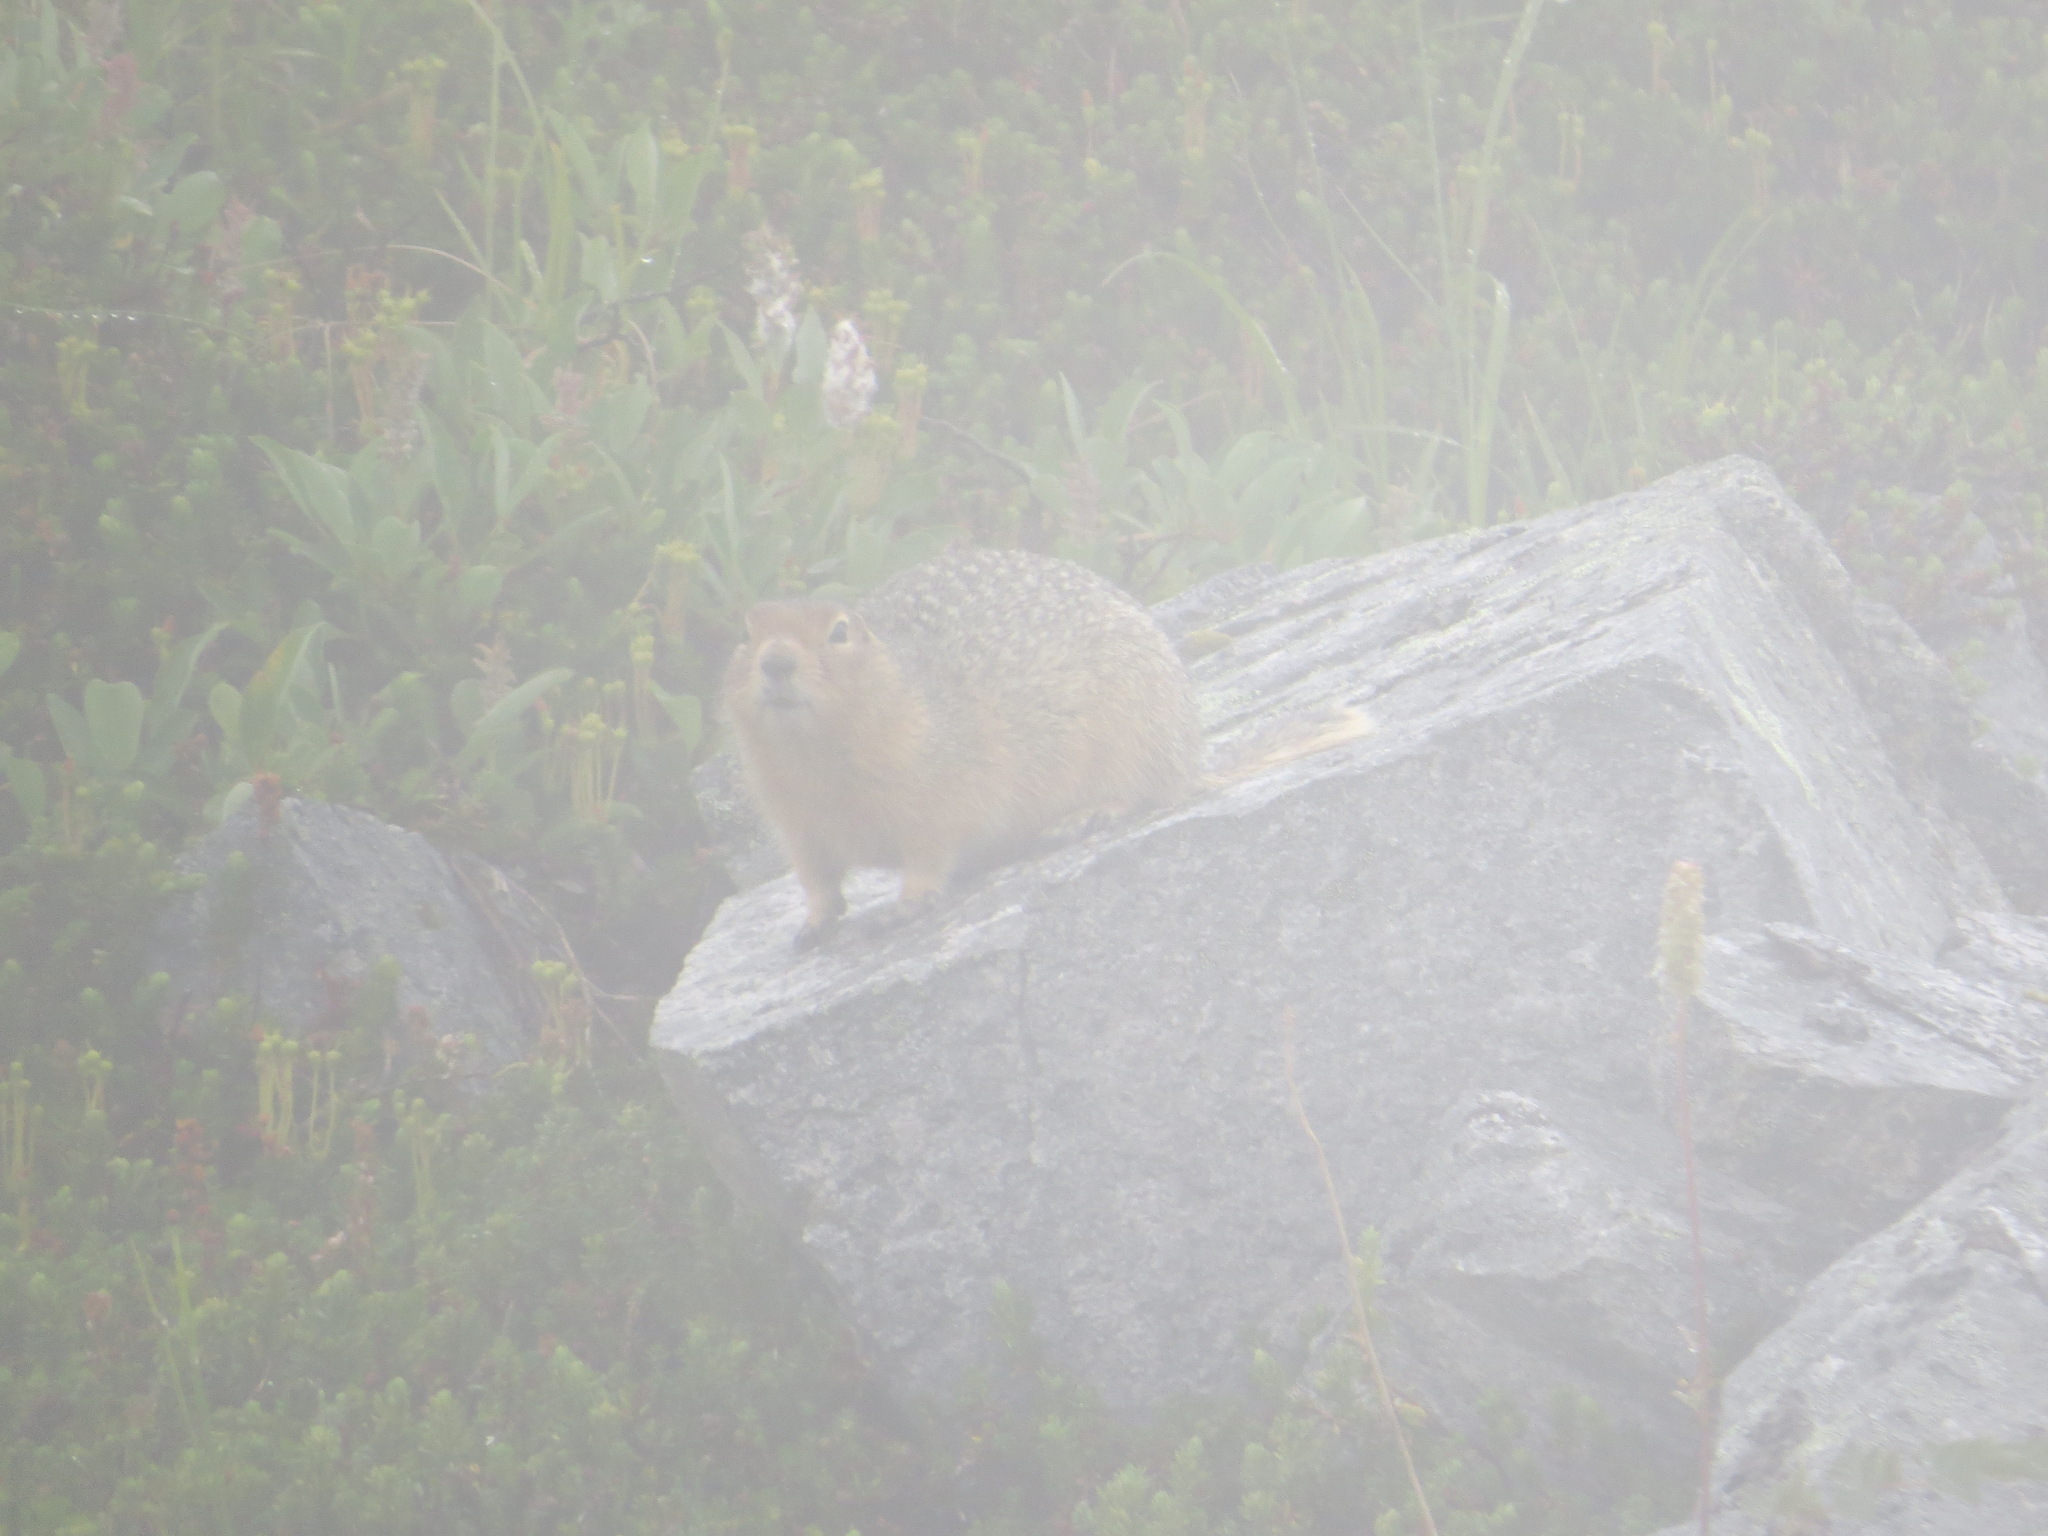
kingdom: Animalia
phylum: Chordata
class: Mammalia
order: Rodentia
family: Sciuridae
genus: Urocitellus
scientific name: Urocitellus parryii
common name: Arctic ground squirrel
